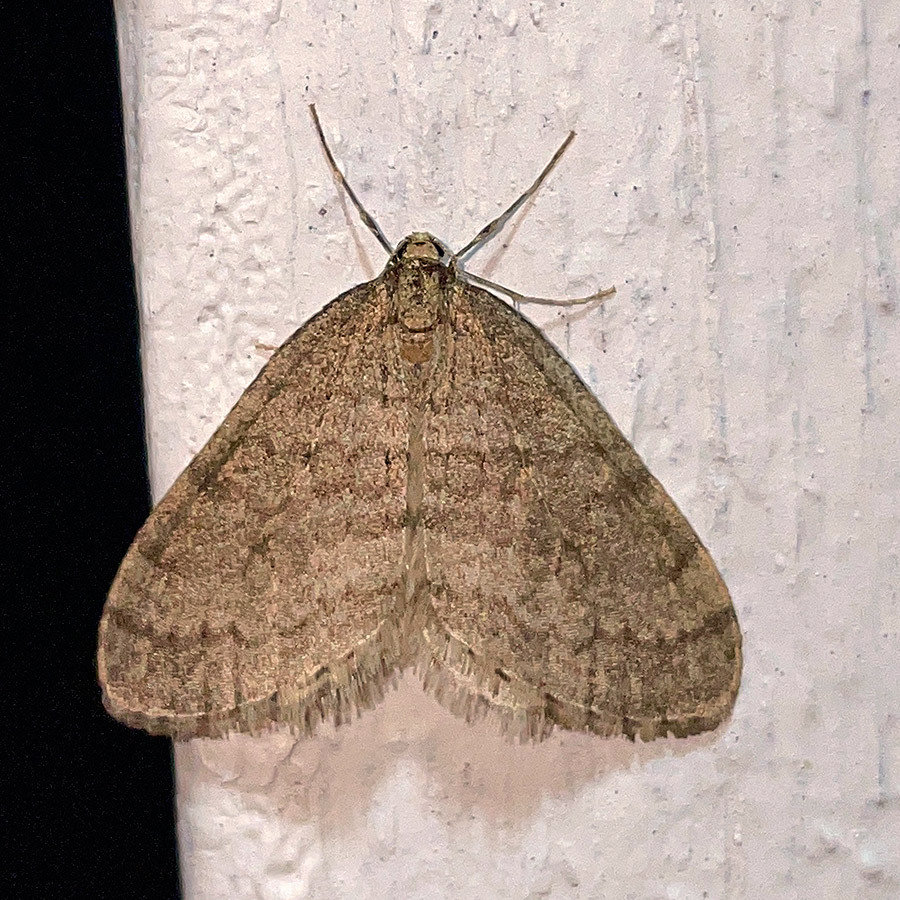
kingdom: Animalia
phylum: Arthropoda
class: Insecta
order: Lepidoptera
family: Geometridae
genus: Operophtera
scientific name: Operophtera brumata
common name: Winter moth
